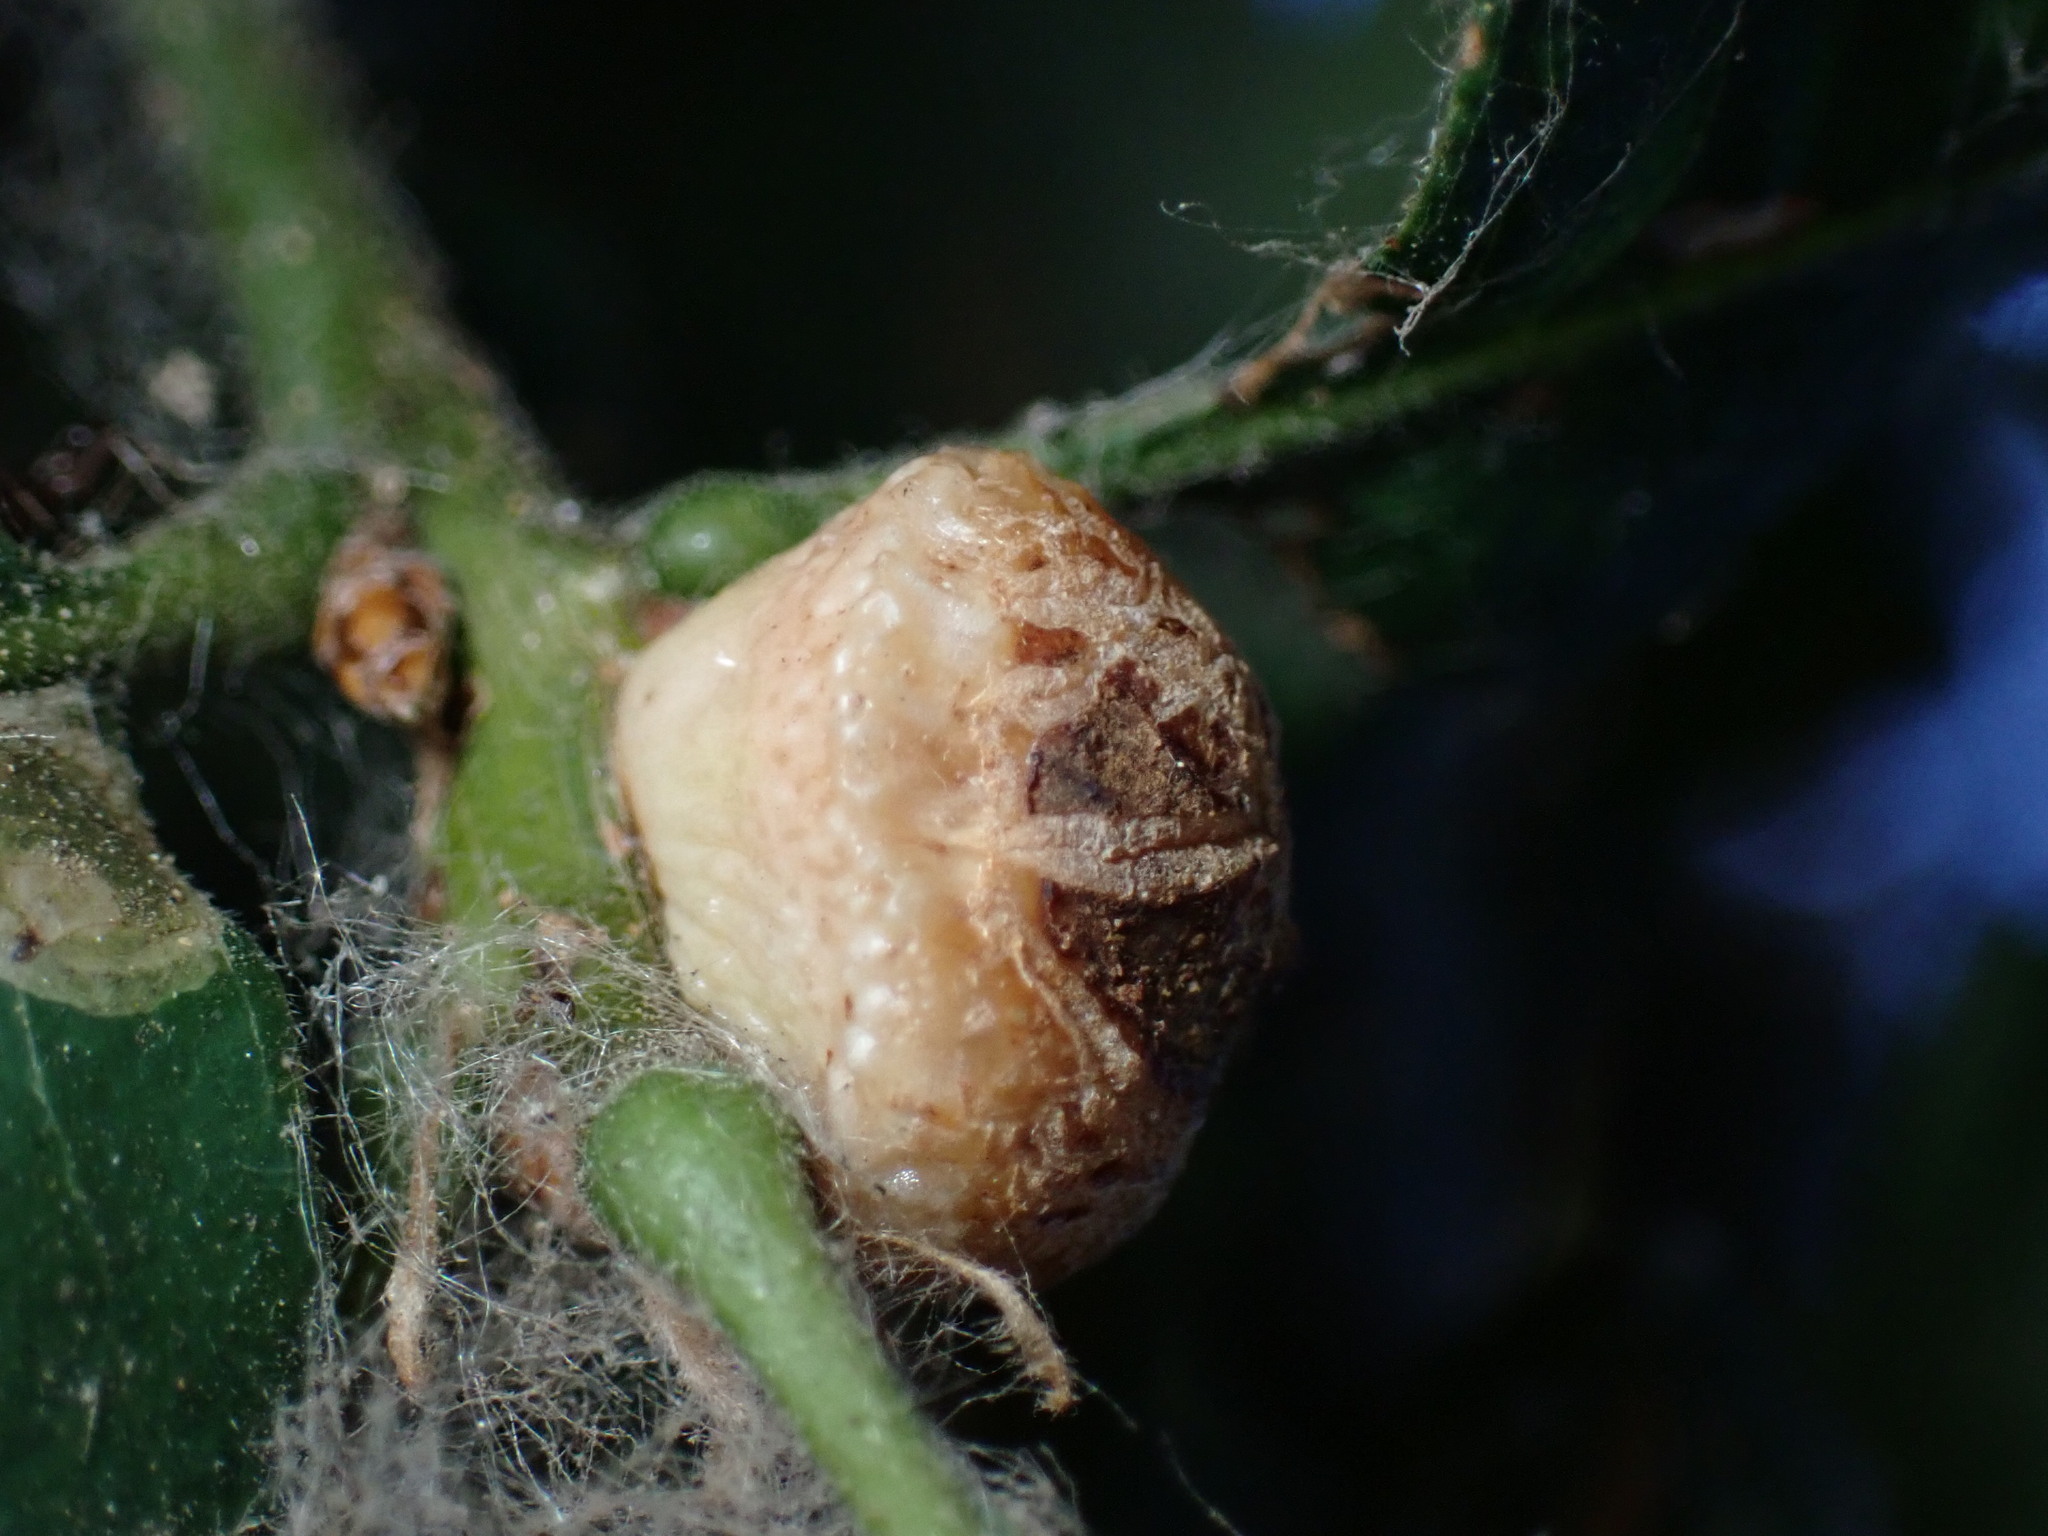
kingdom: Animalia
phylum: Arthropoda
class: Insecta
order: Hymenoptera
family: Cynipidae
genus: Disholcaspis
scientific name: Disholcaspis
